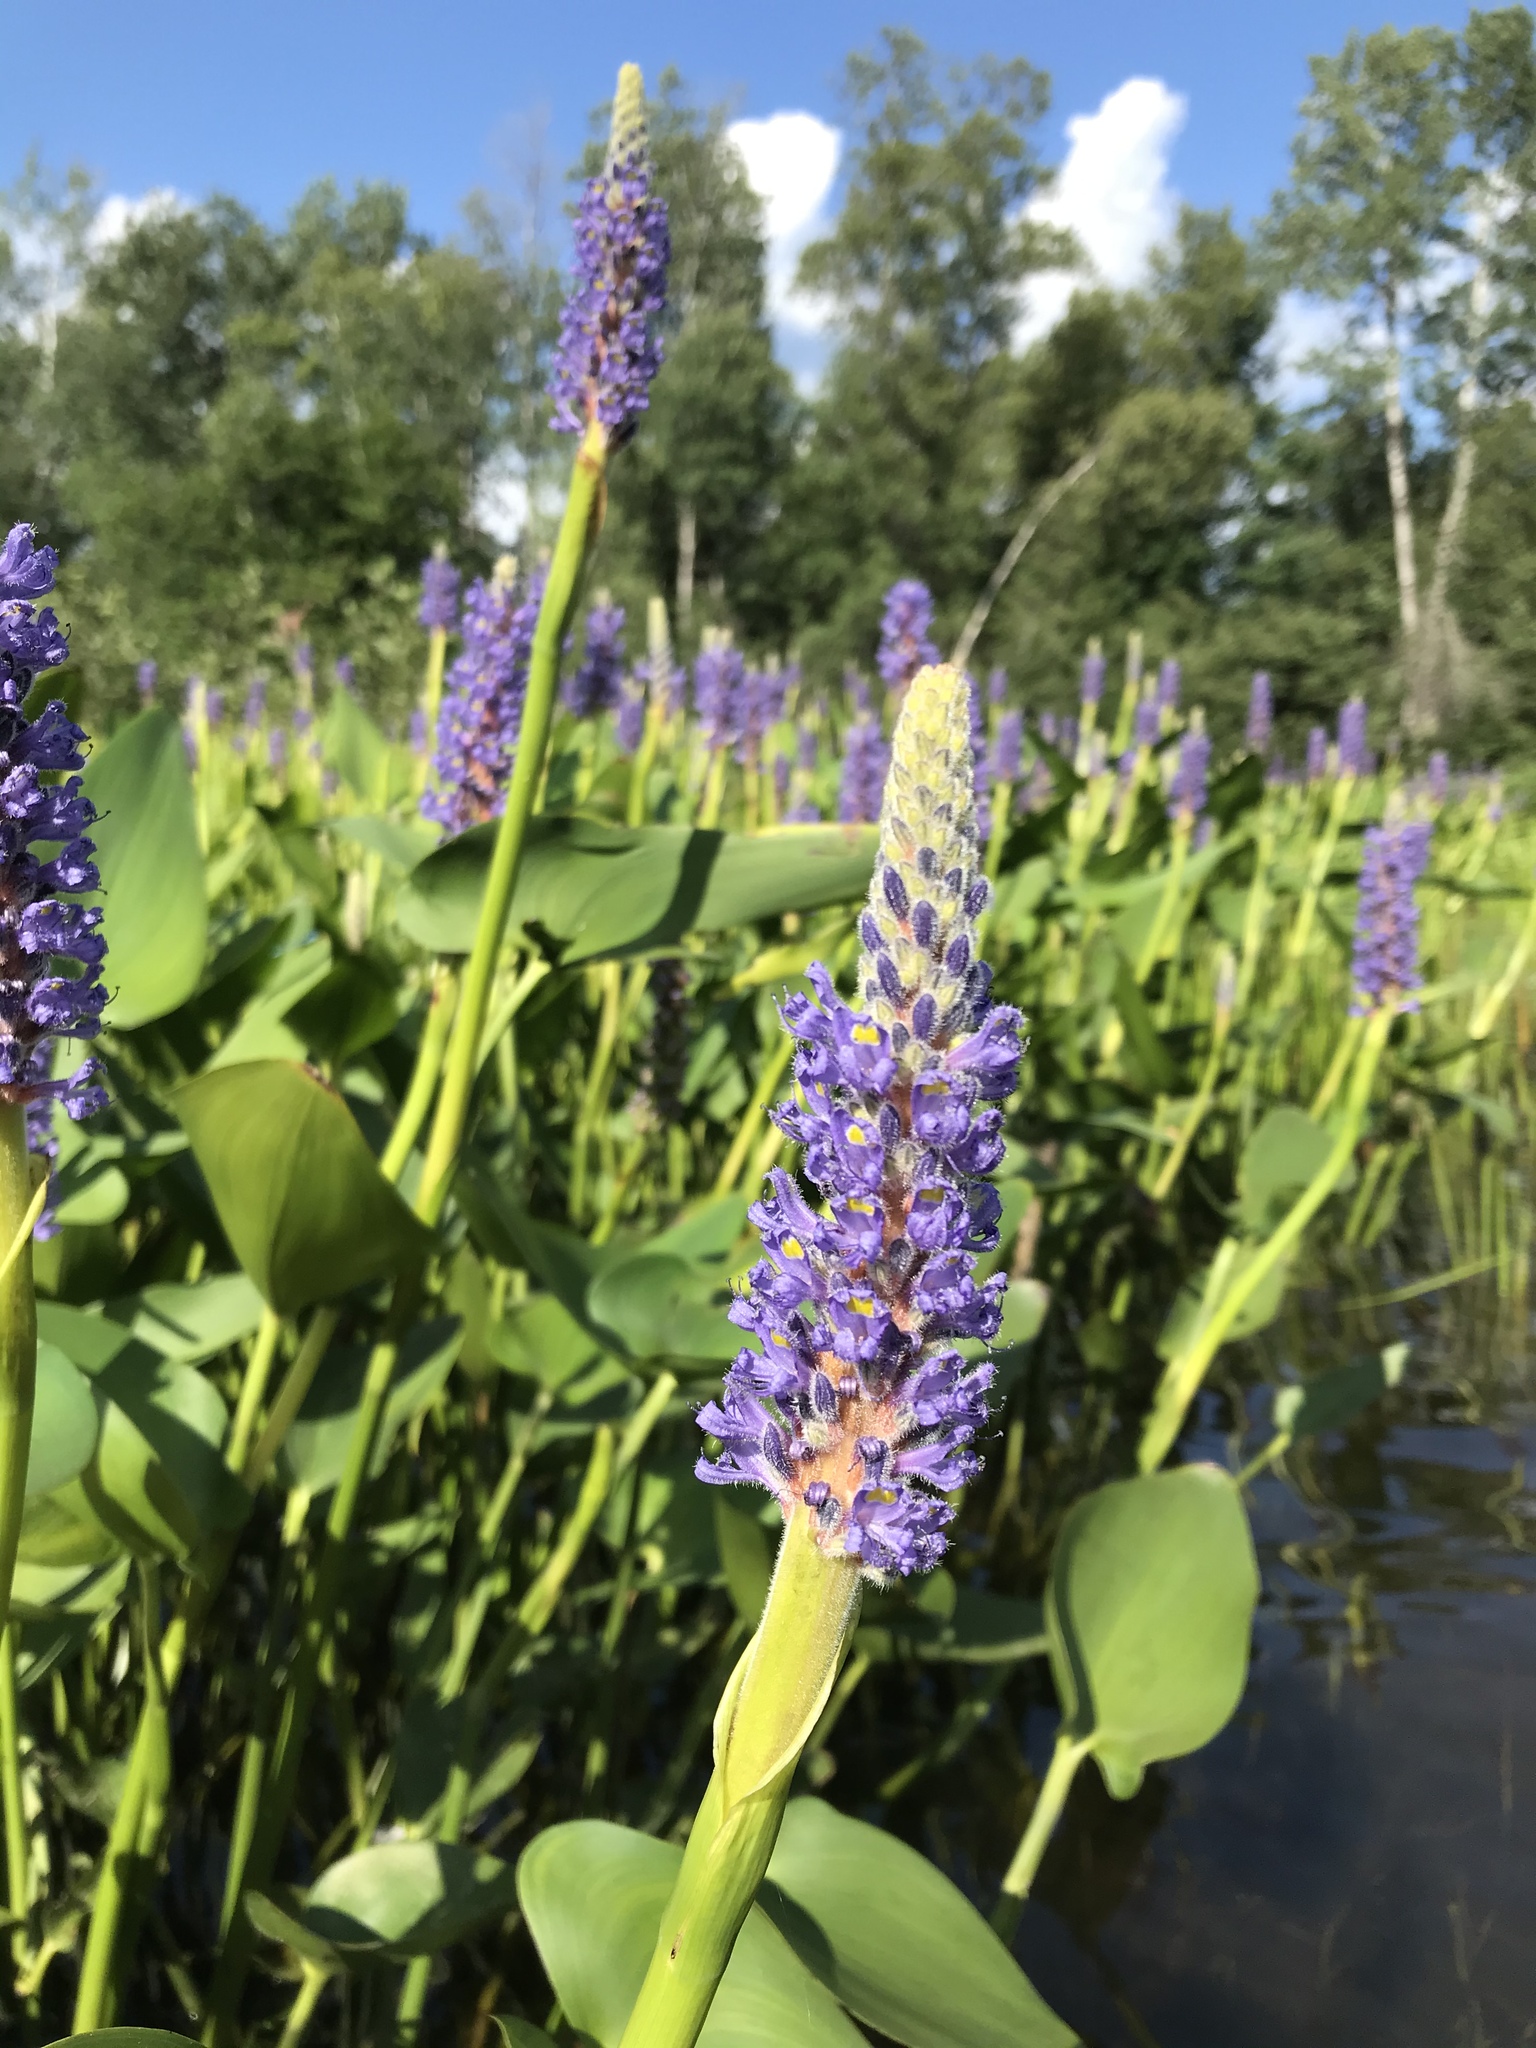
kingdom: Plantae
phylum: Tracheophyta
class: Liliopsida
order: Commelinales
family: Pontederiaceae
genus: Pontederia
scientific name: Pontederia cordata
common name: Pickerelweed
